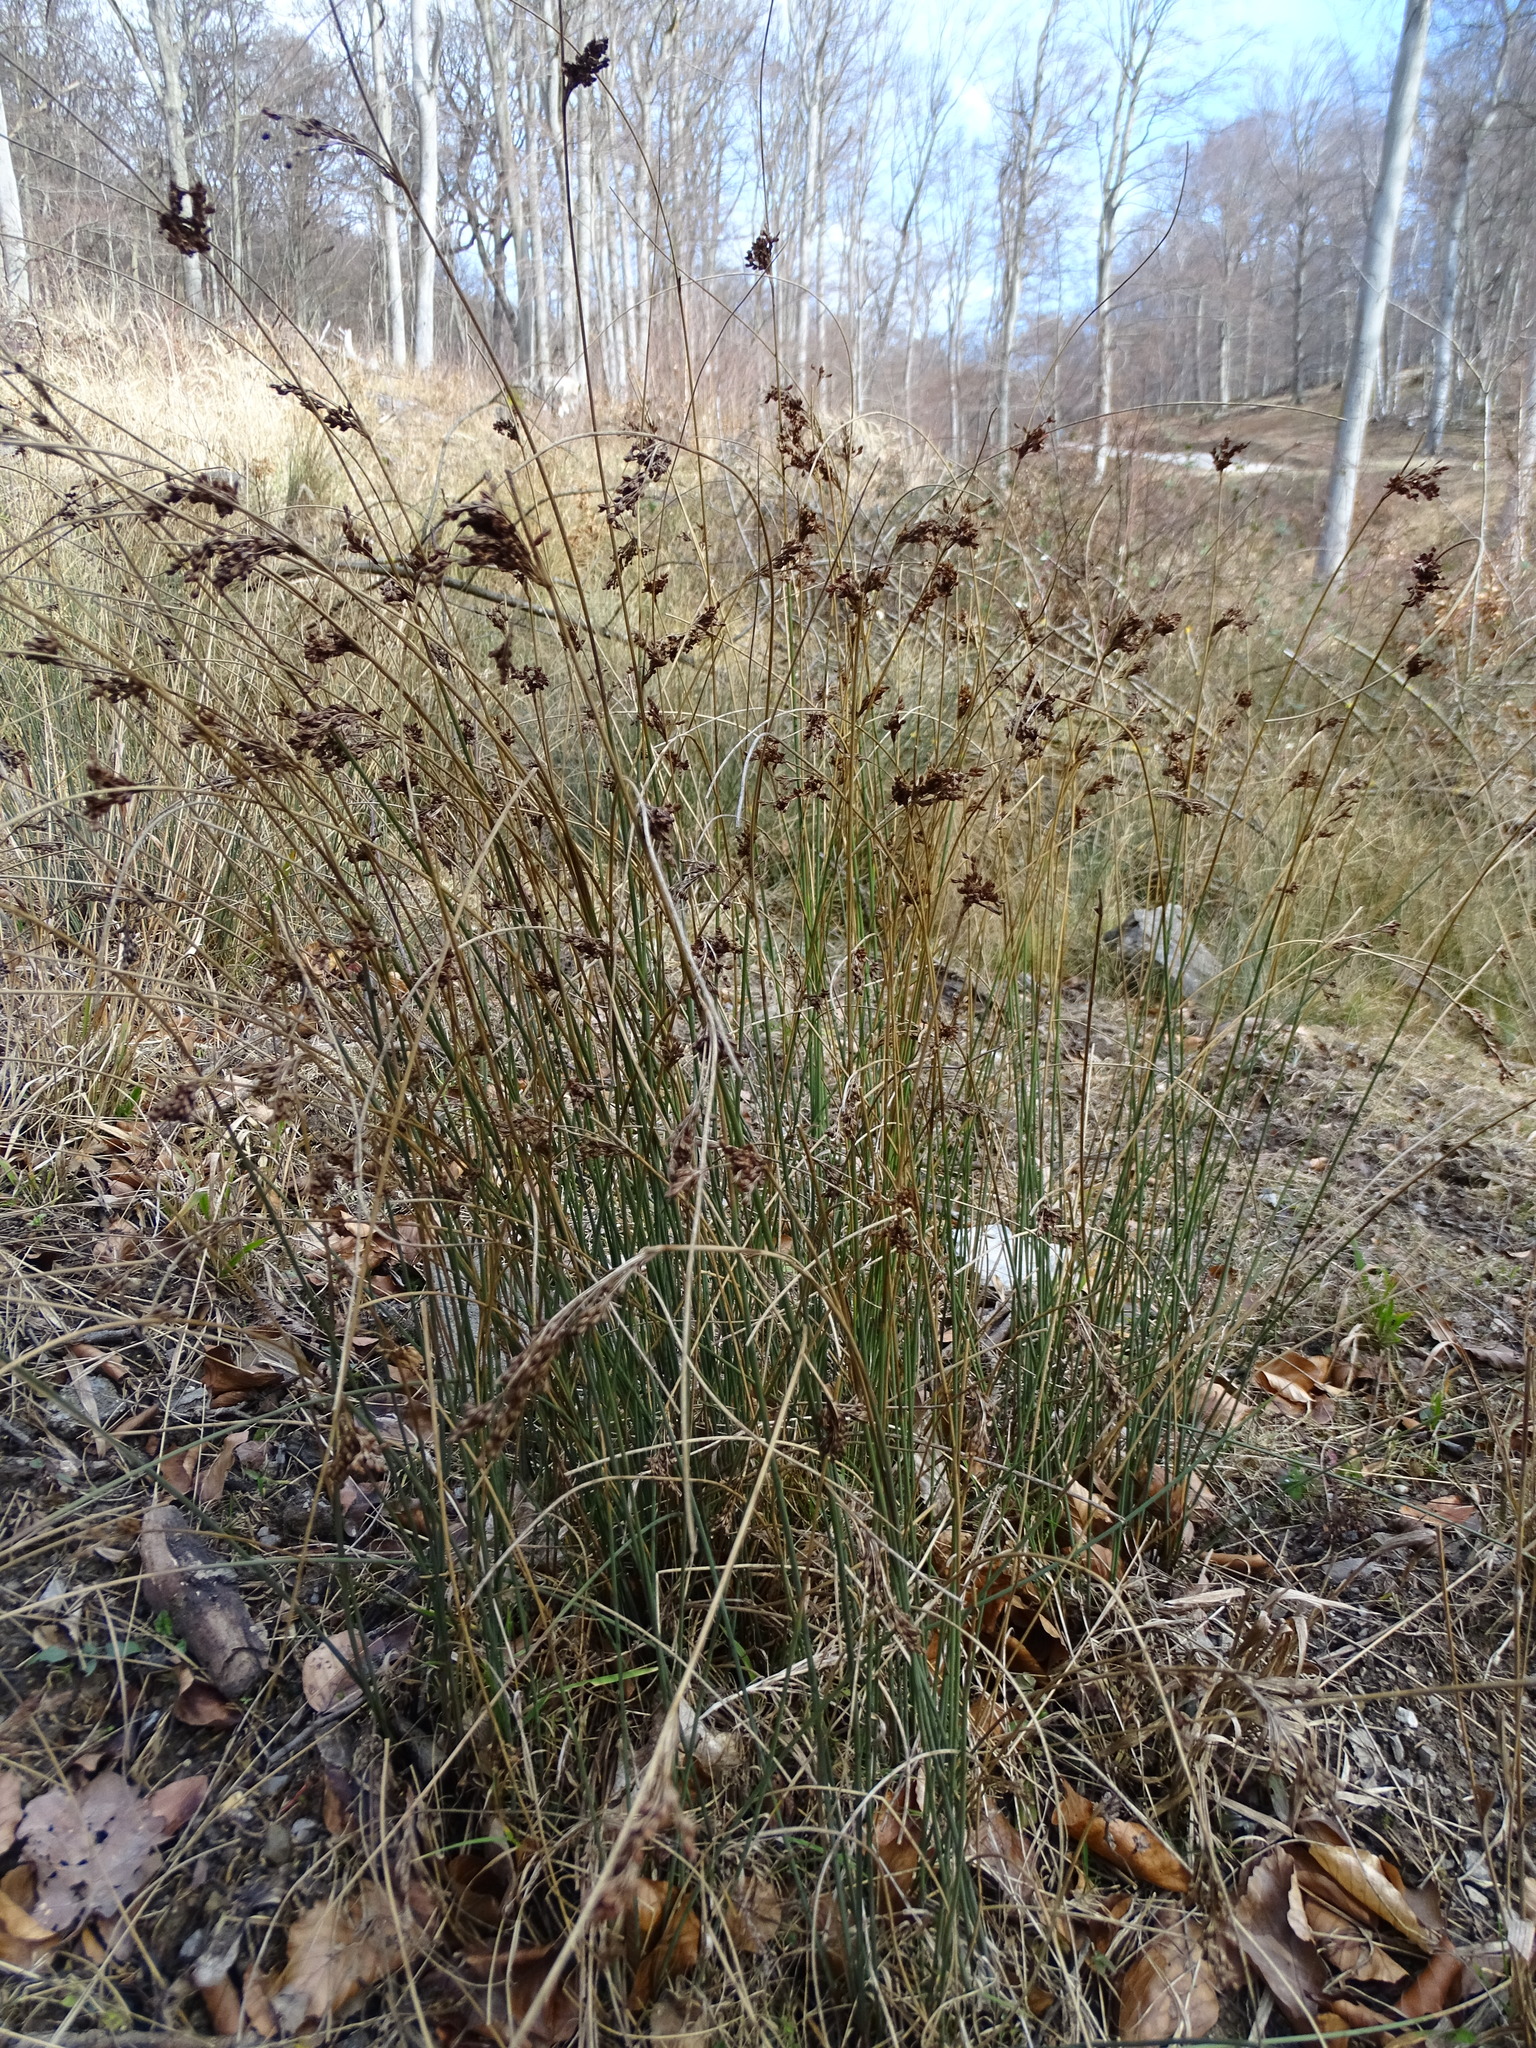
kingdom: Plantae
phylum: Tracheophyta
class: Liliopsida
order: Poales
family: Juncaceae
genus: Juncus
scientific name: Juncus inflexus
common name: Hard rush
